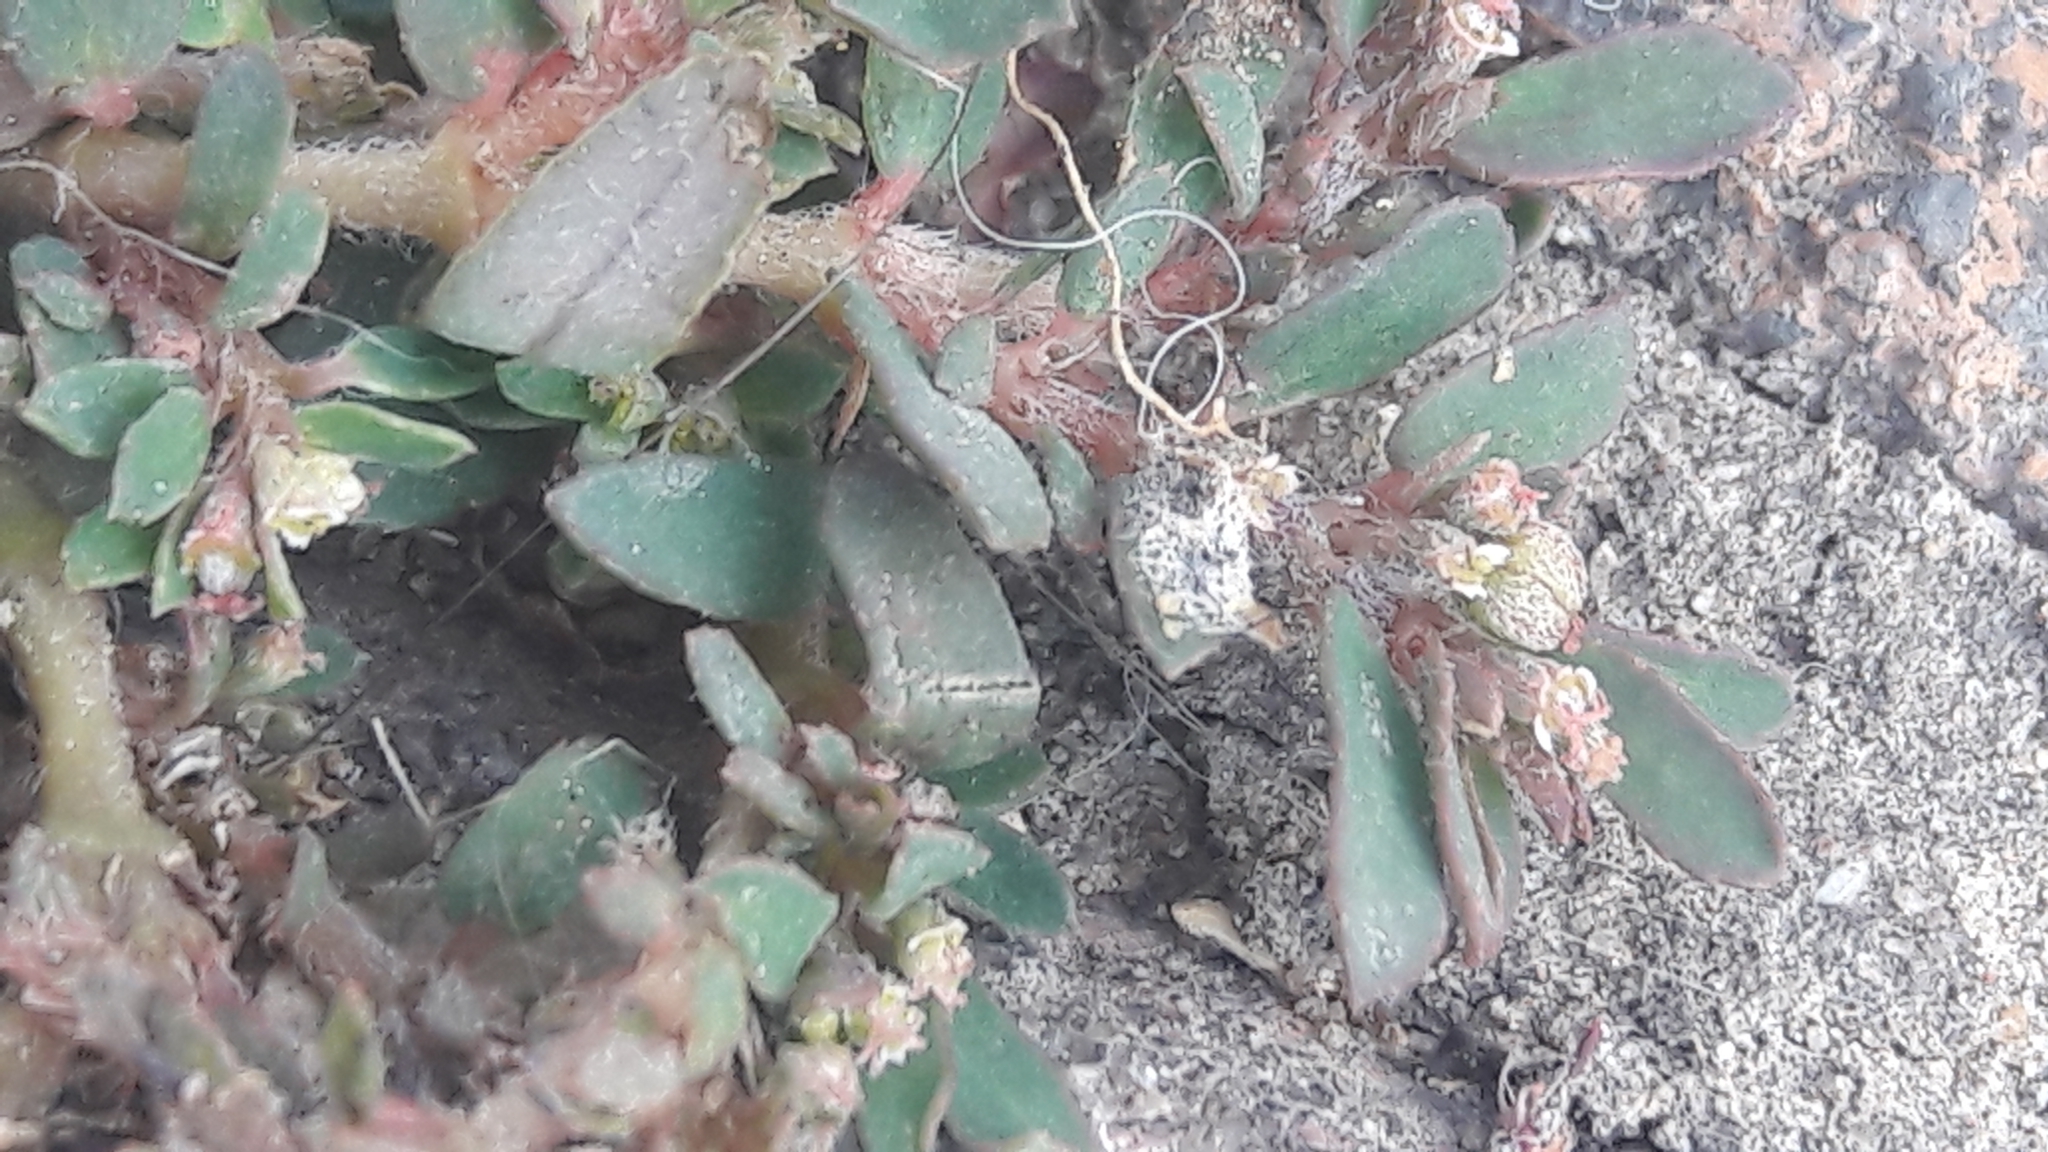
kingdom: Plantae
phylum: Tracheophyta
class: Magnoliopsida
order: Malpighiales
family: Euphorbiaceae
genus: Euphorbia
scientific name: Euphorbia maculata
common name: Spotted spurge
